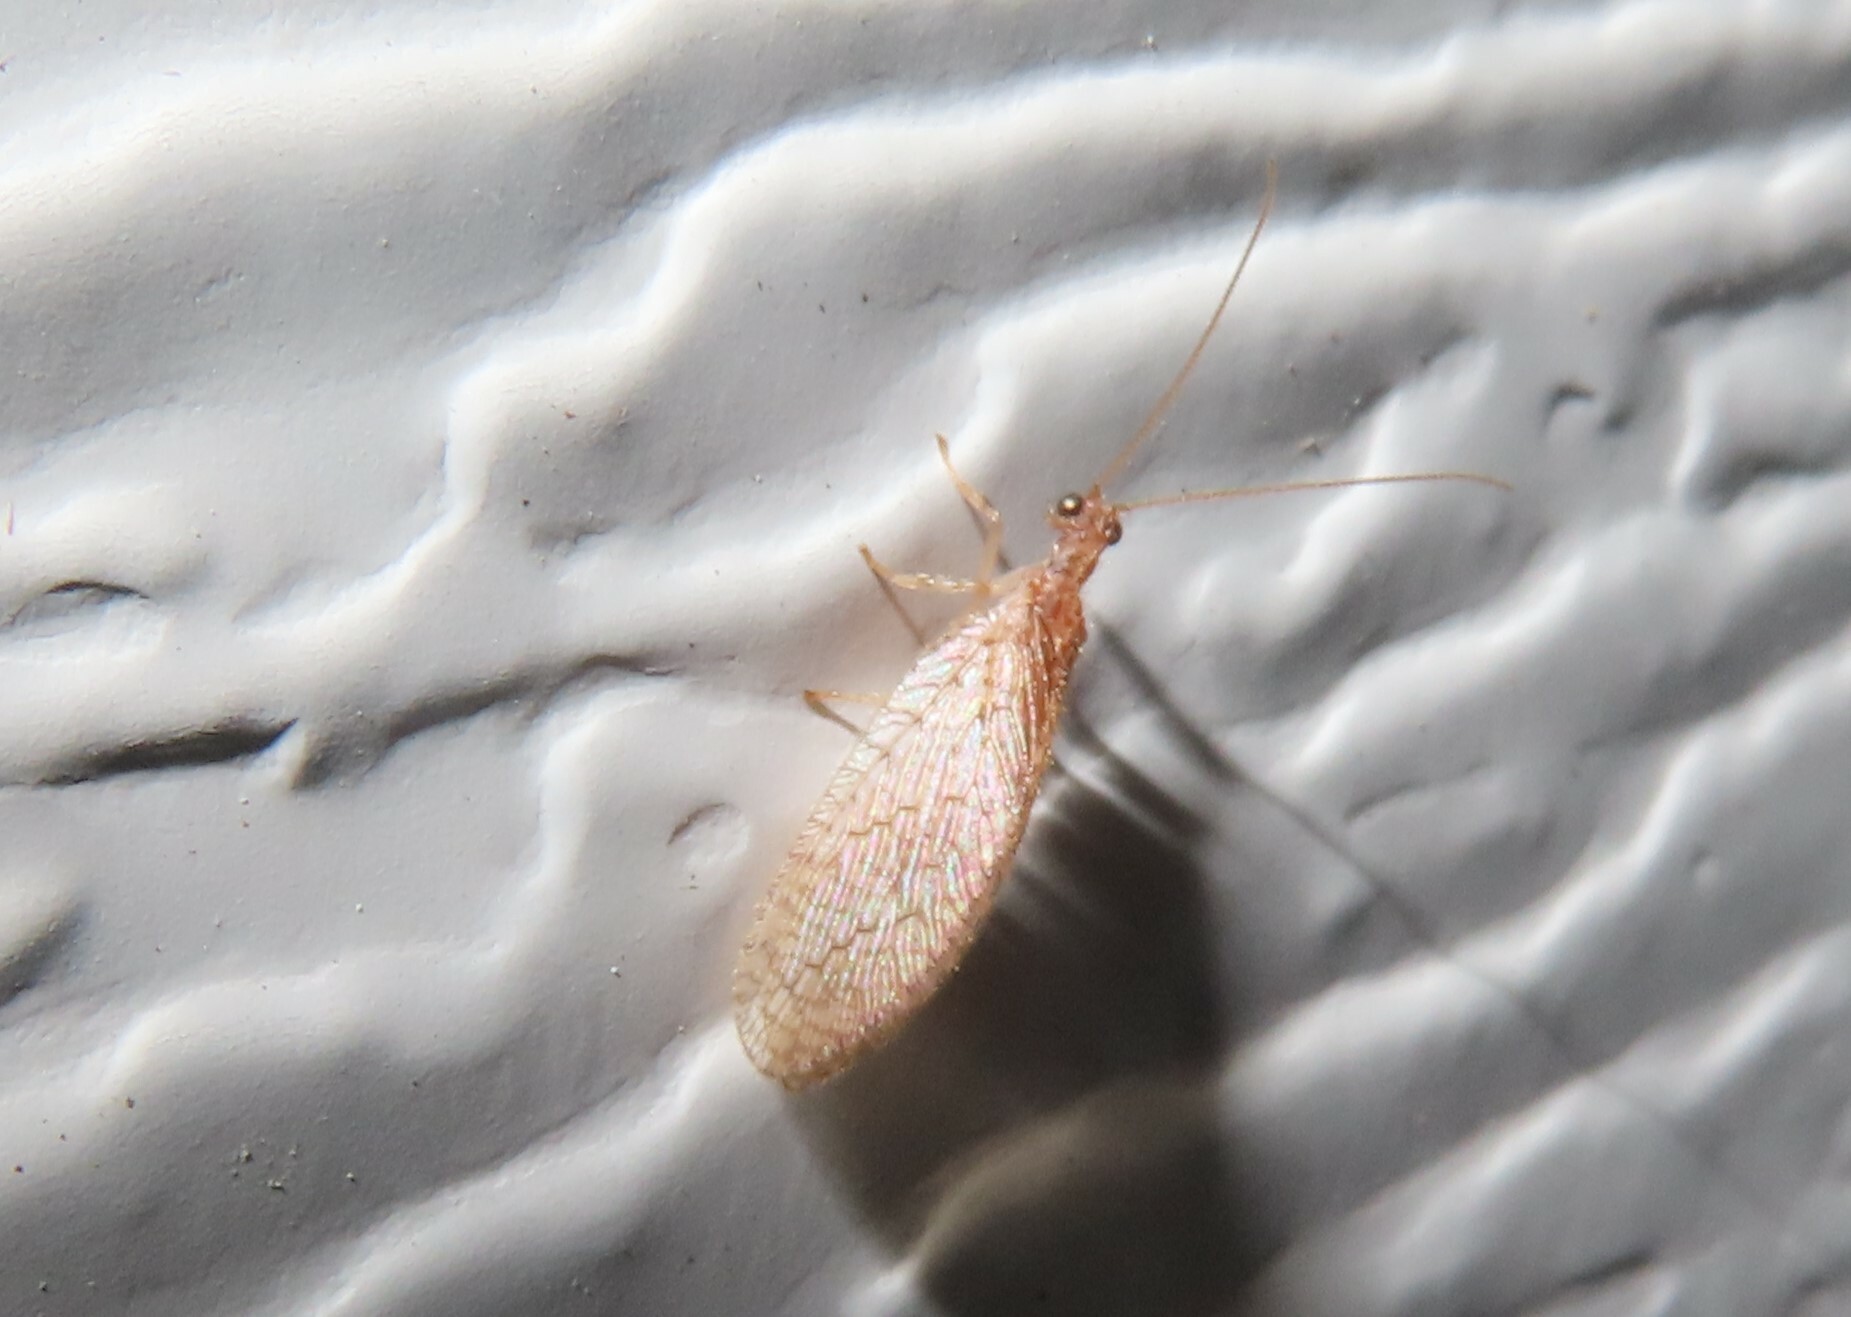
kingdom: Animalia
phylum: Arthropoda
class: Insecta
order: Neuroptera
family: Hemerobiidae
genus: Micromus
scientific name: Micromus posticus
